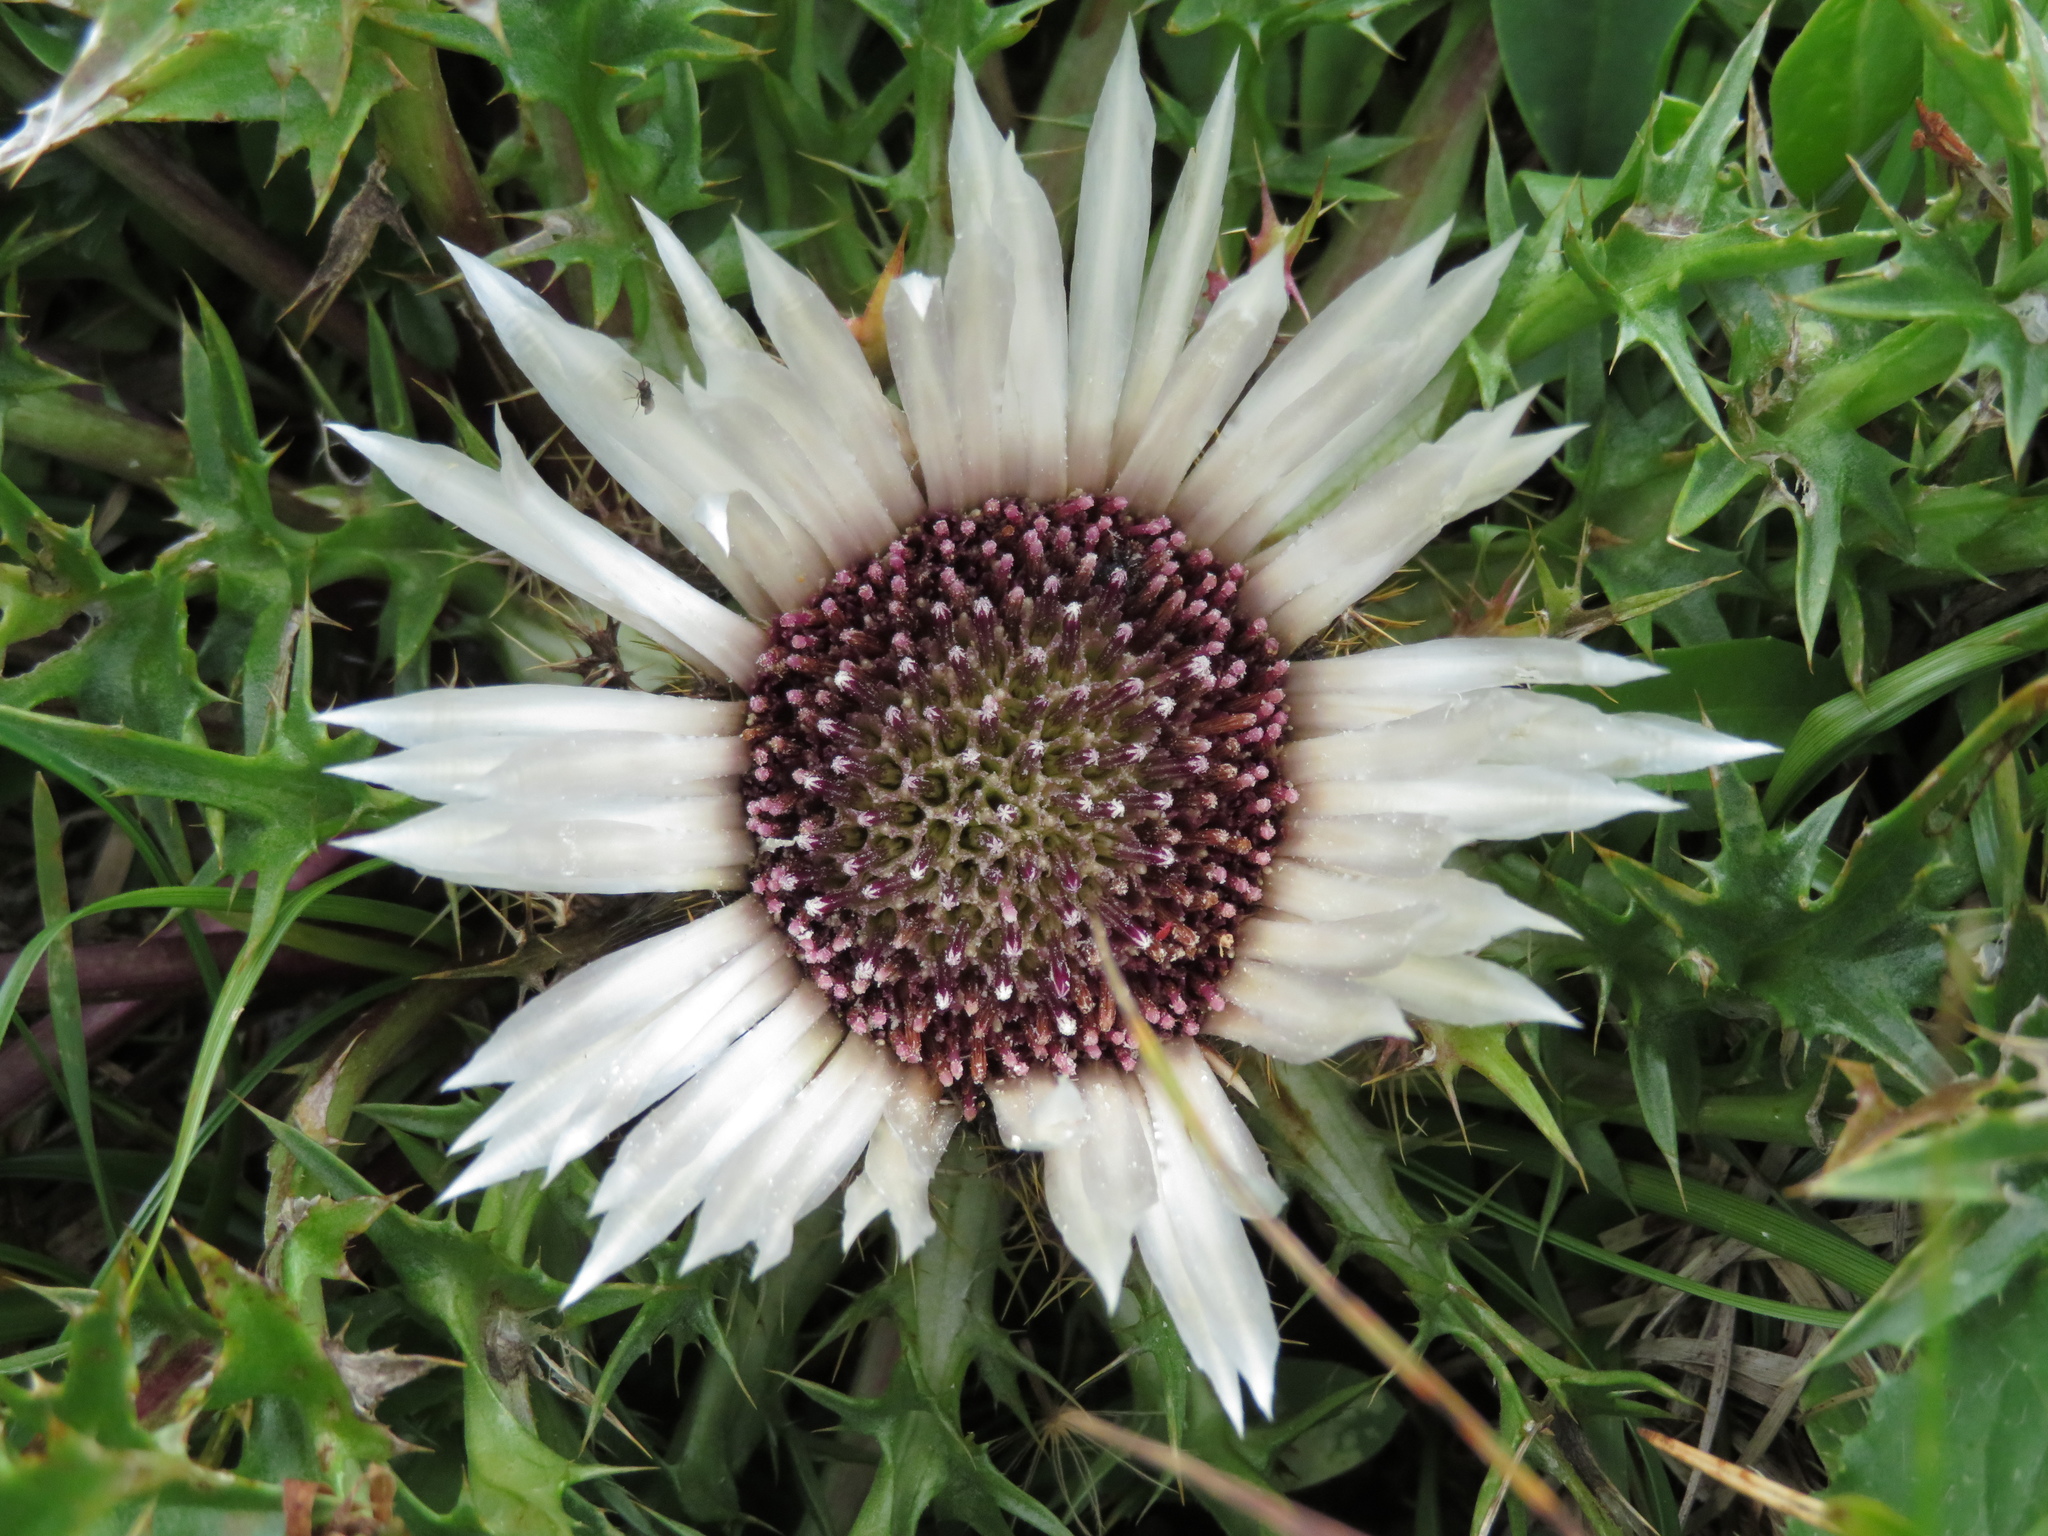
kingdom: Plantae
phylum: Tracheophyta
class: Magnoliopsida
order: Asterales
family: Asteraceae
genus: Carlina
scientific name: Carlina acaulis
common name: Stemless carline thistle
